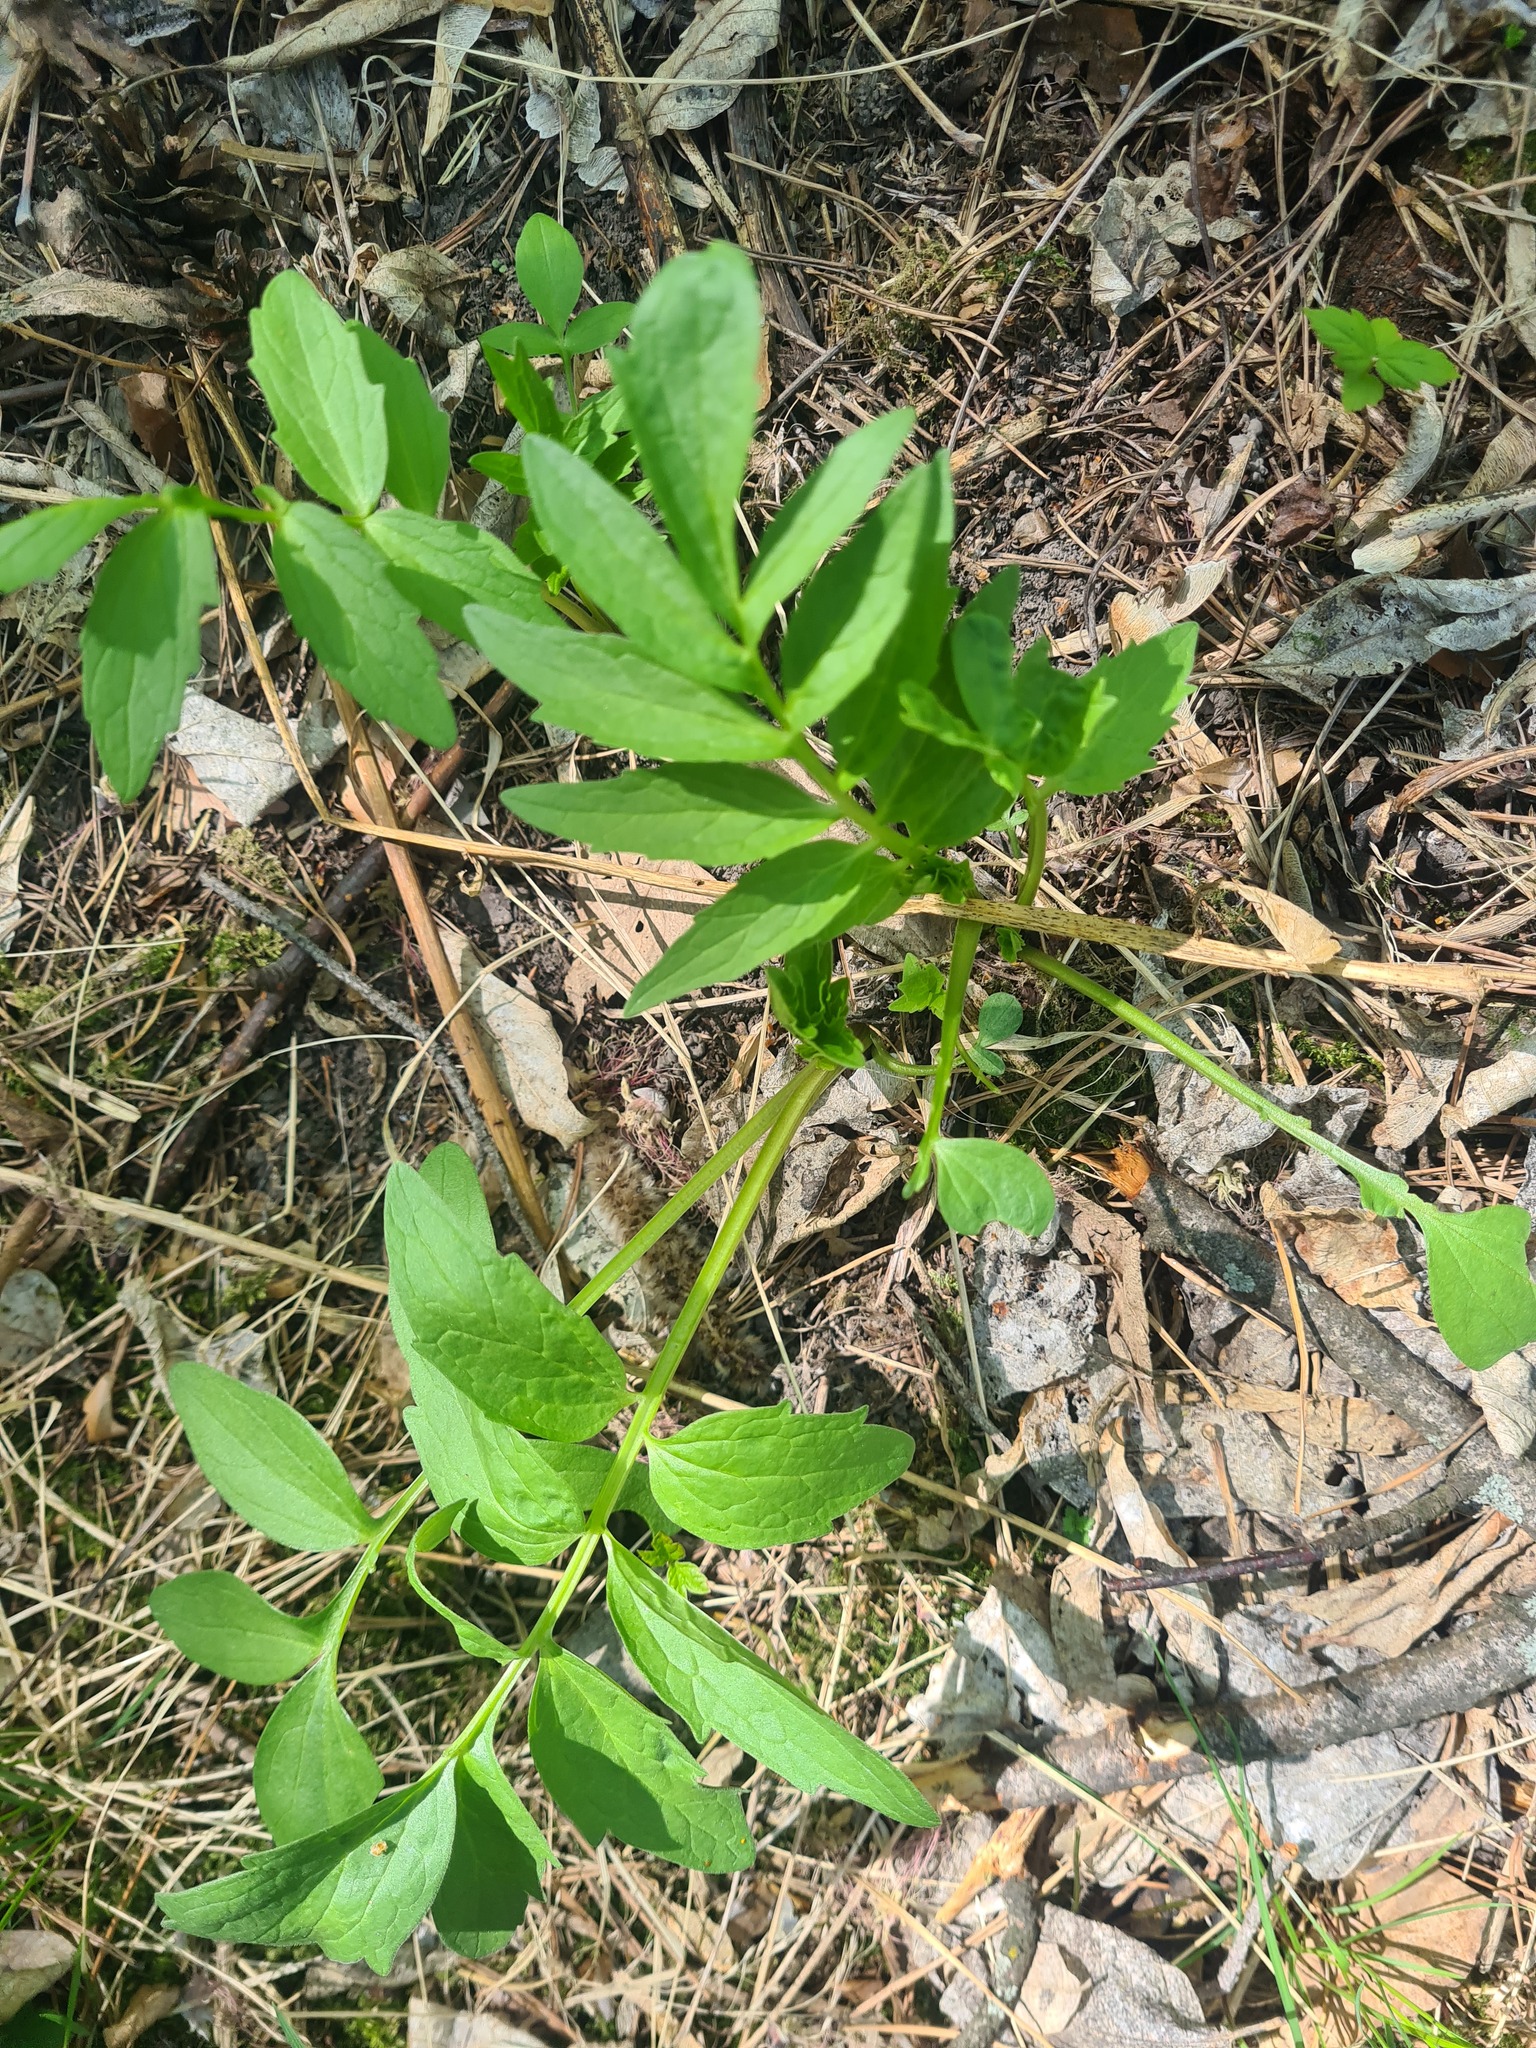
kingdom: Plantae
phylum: Tracheophyta
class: Magnoliopsida
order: Dipsacales
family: Caprifoliaceae
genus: Valeriana
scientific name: Valeriana wolgensis
